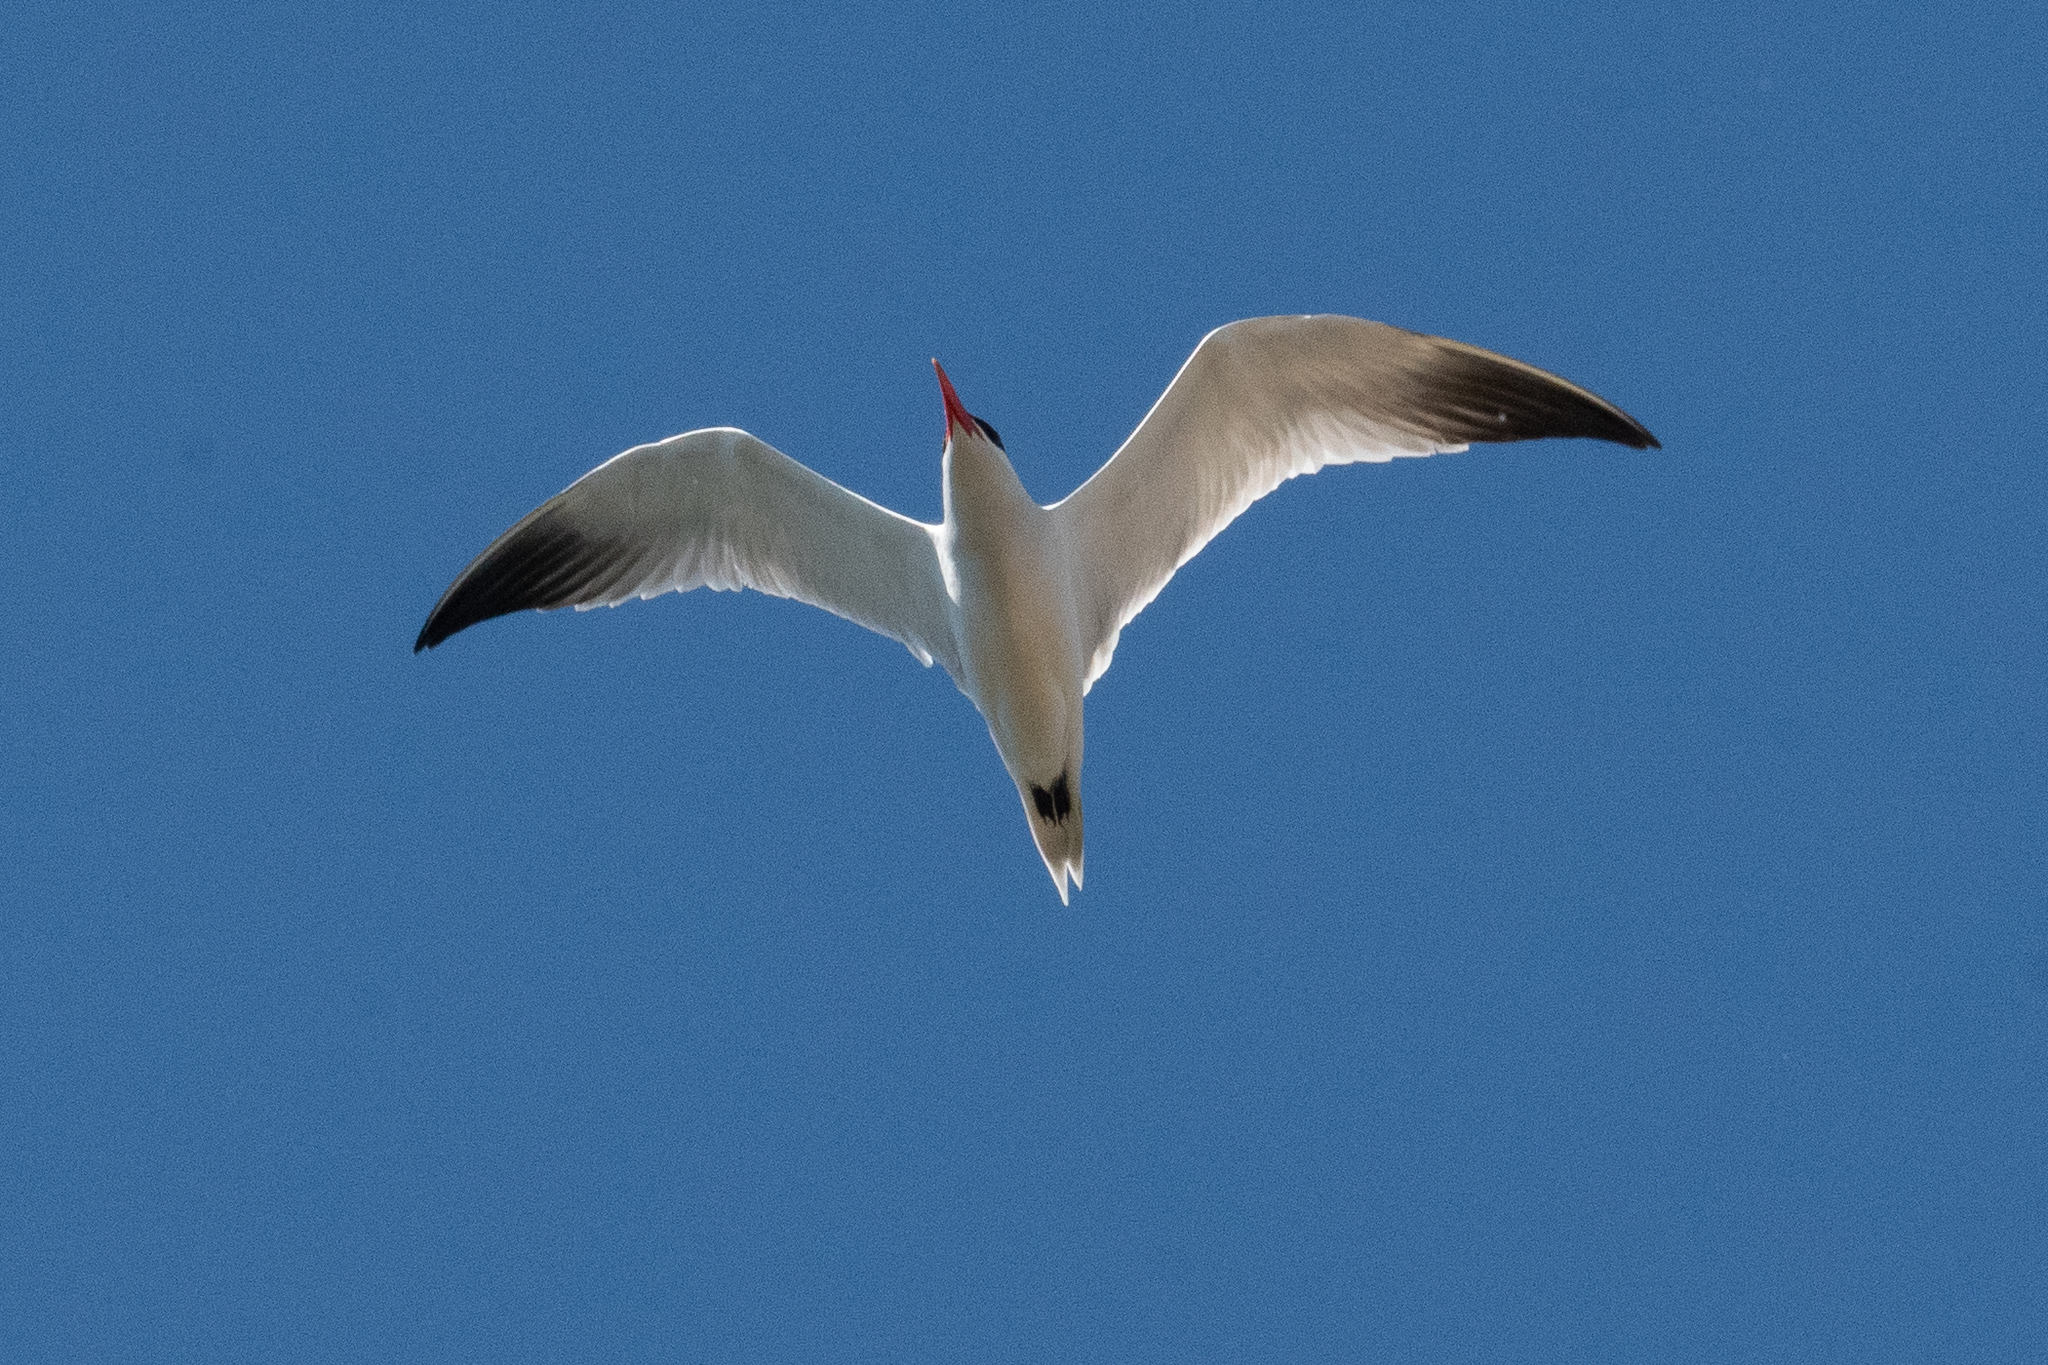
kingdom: Animalia
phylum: Chordata
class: Aves
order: Charadriiformes
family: Laridae
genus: Hydroprogne
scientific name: Hydroprogne caspia
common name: Caspian tern
